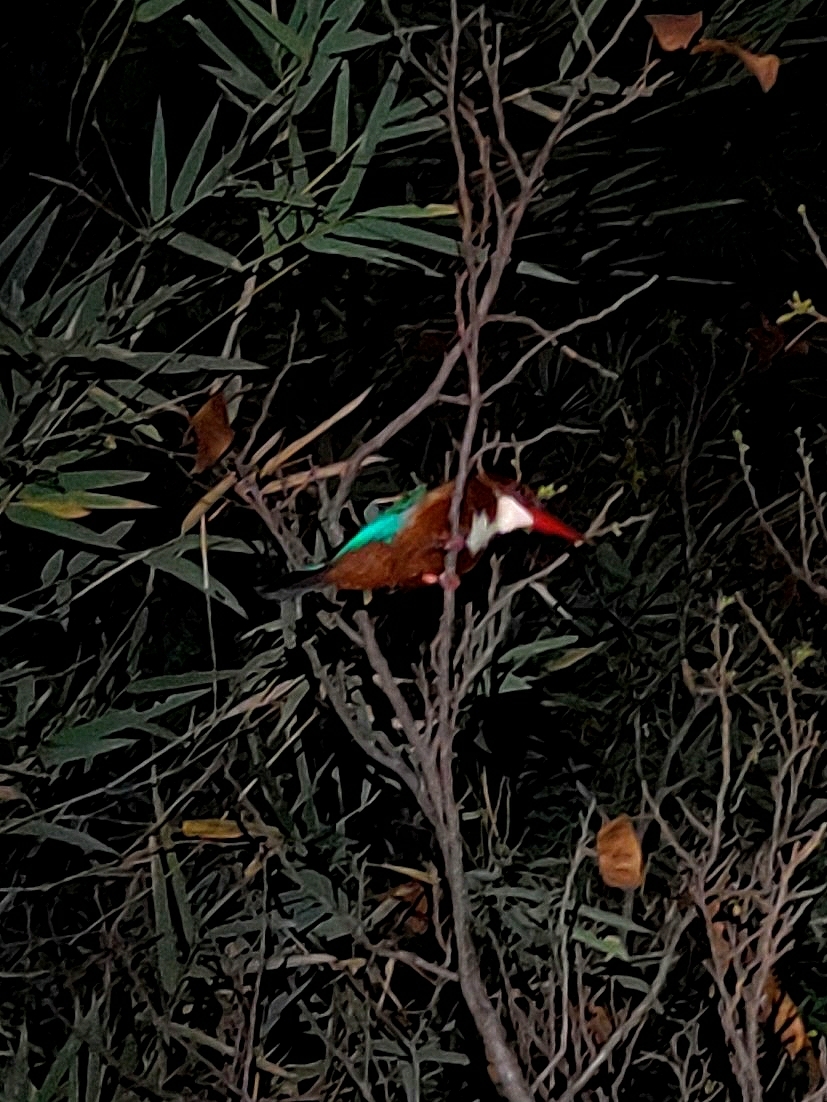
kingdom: Animalia
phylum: Chordata
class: Aves
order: Coraciiformes
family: Alcedinidae
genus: Halcyon
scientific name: Halcyon smyrnensis
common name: White-throated kingfisher
